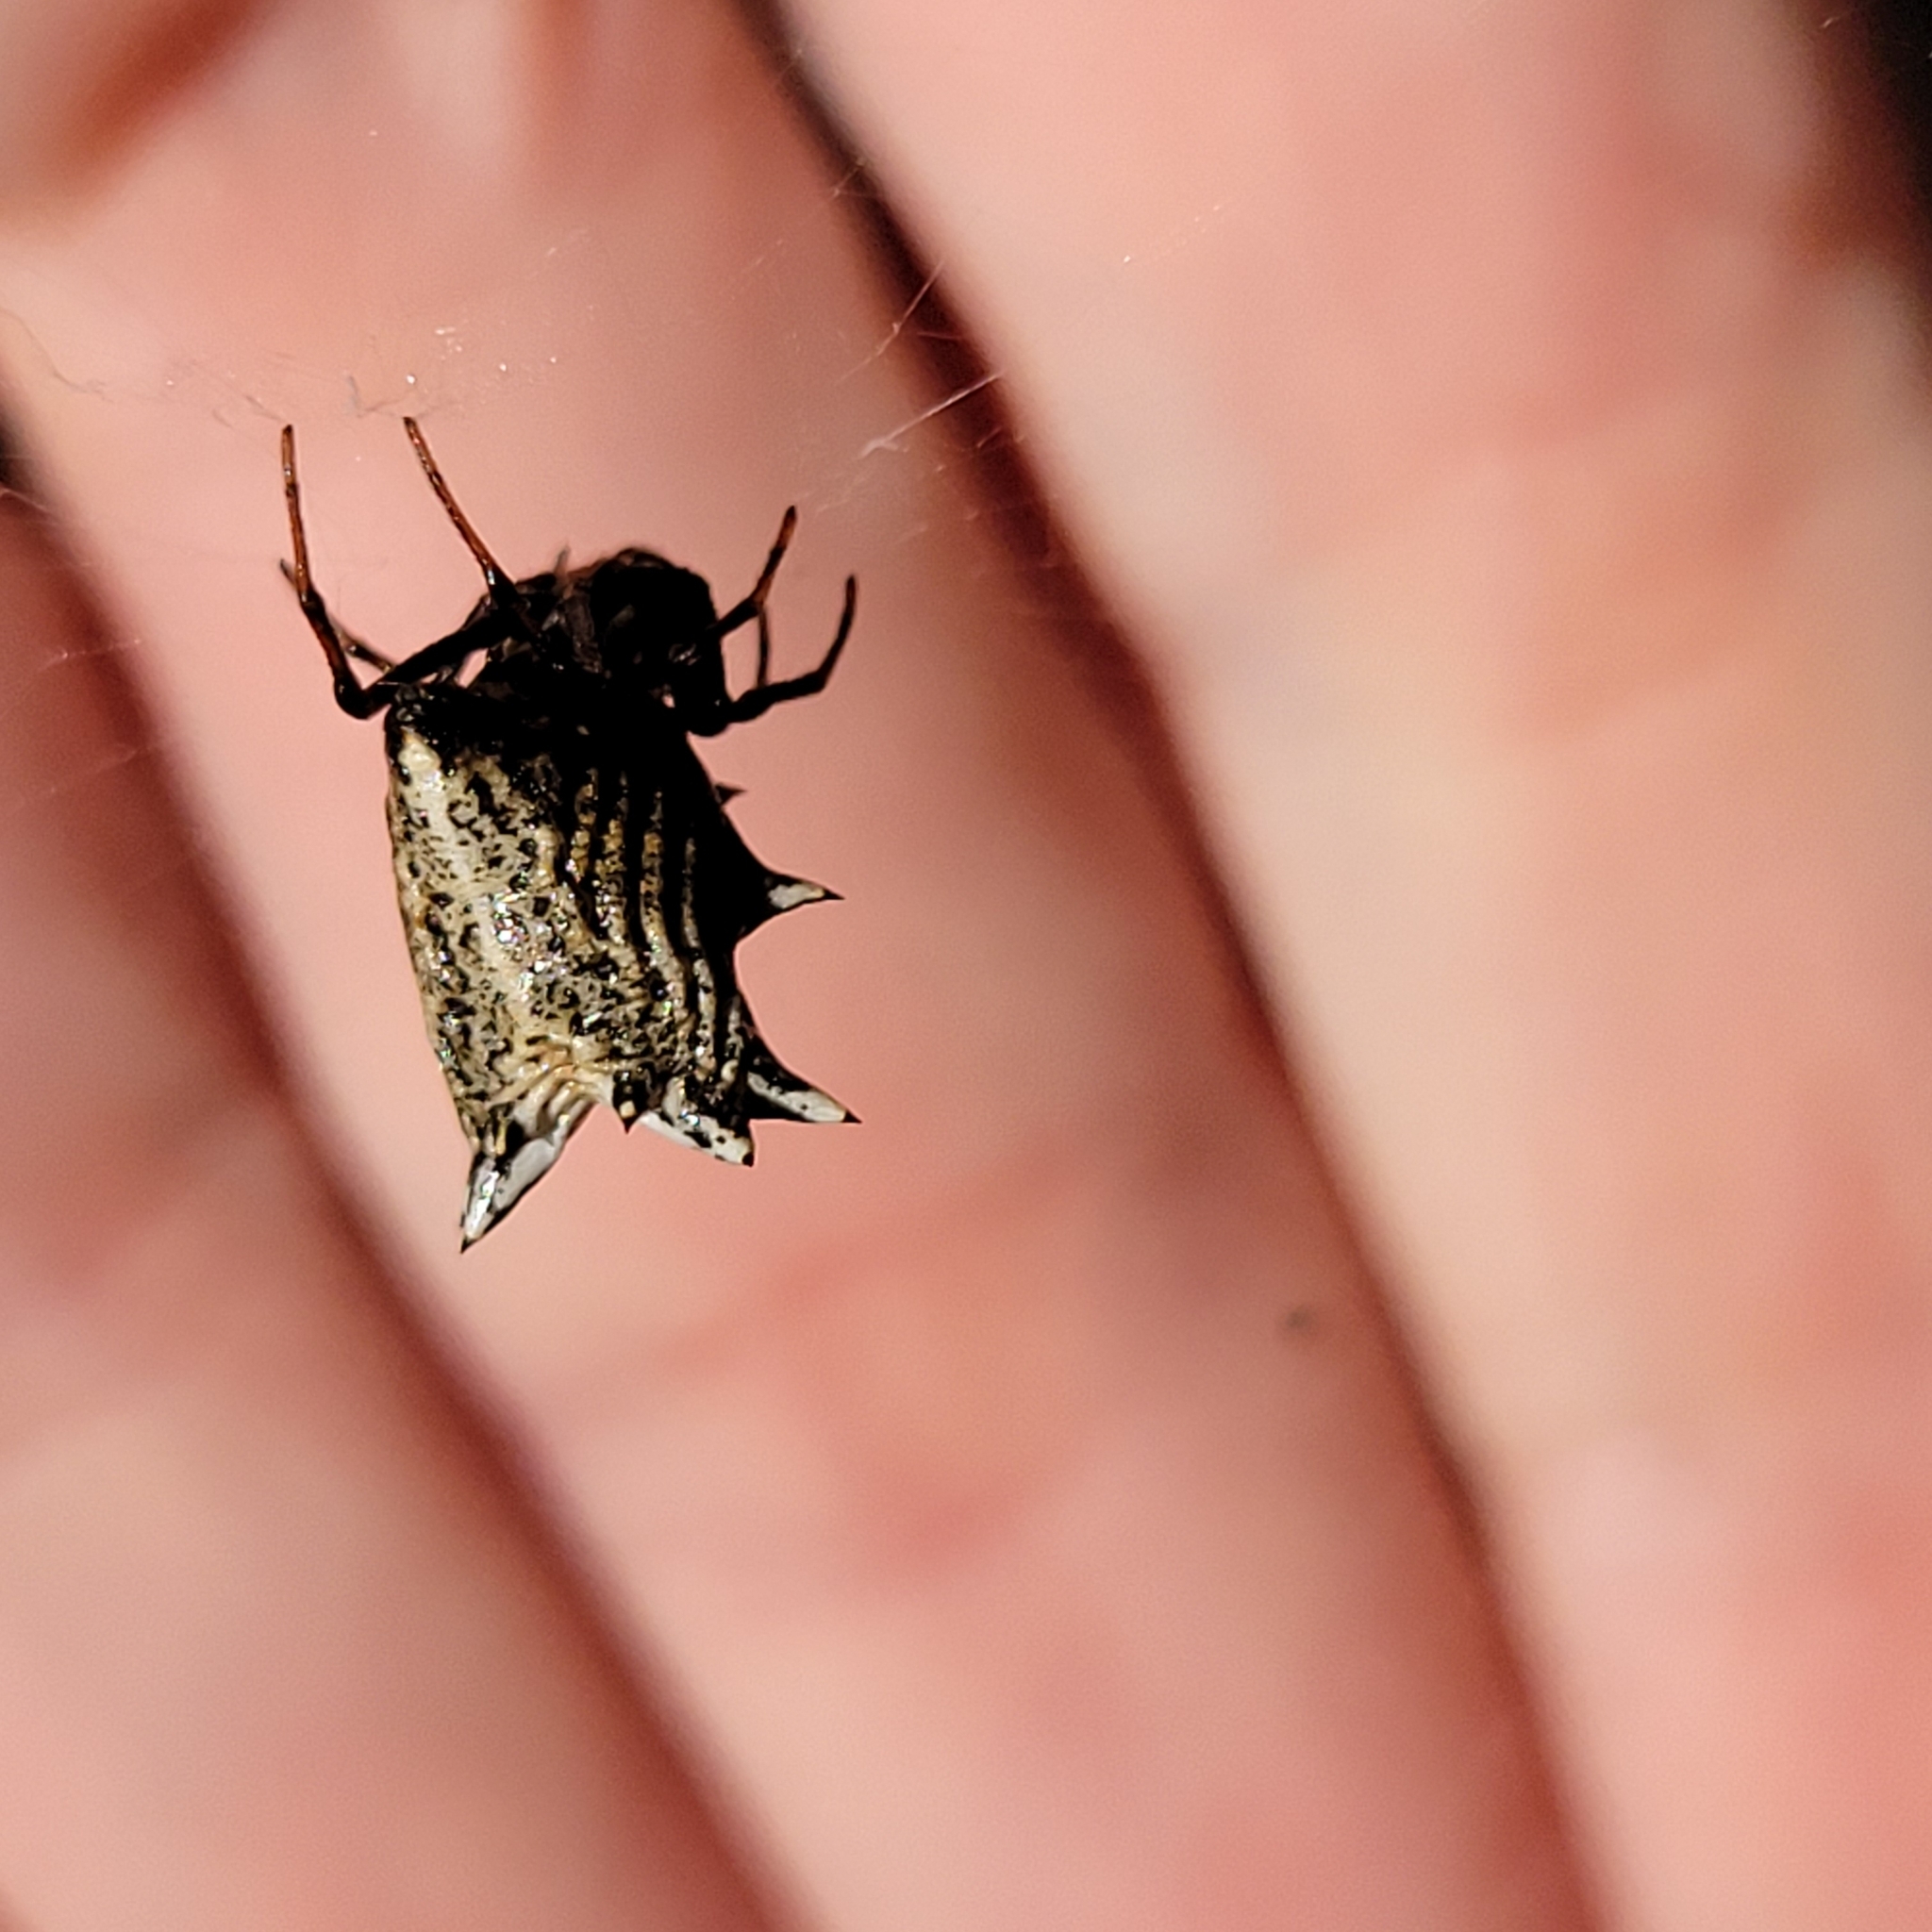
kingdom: Animalia
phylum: Arthropoda
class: Arachnida
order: Araneae
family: Araneidae
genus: Micrathena
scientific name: Micrathena gracilis
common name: Orb weavers
